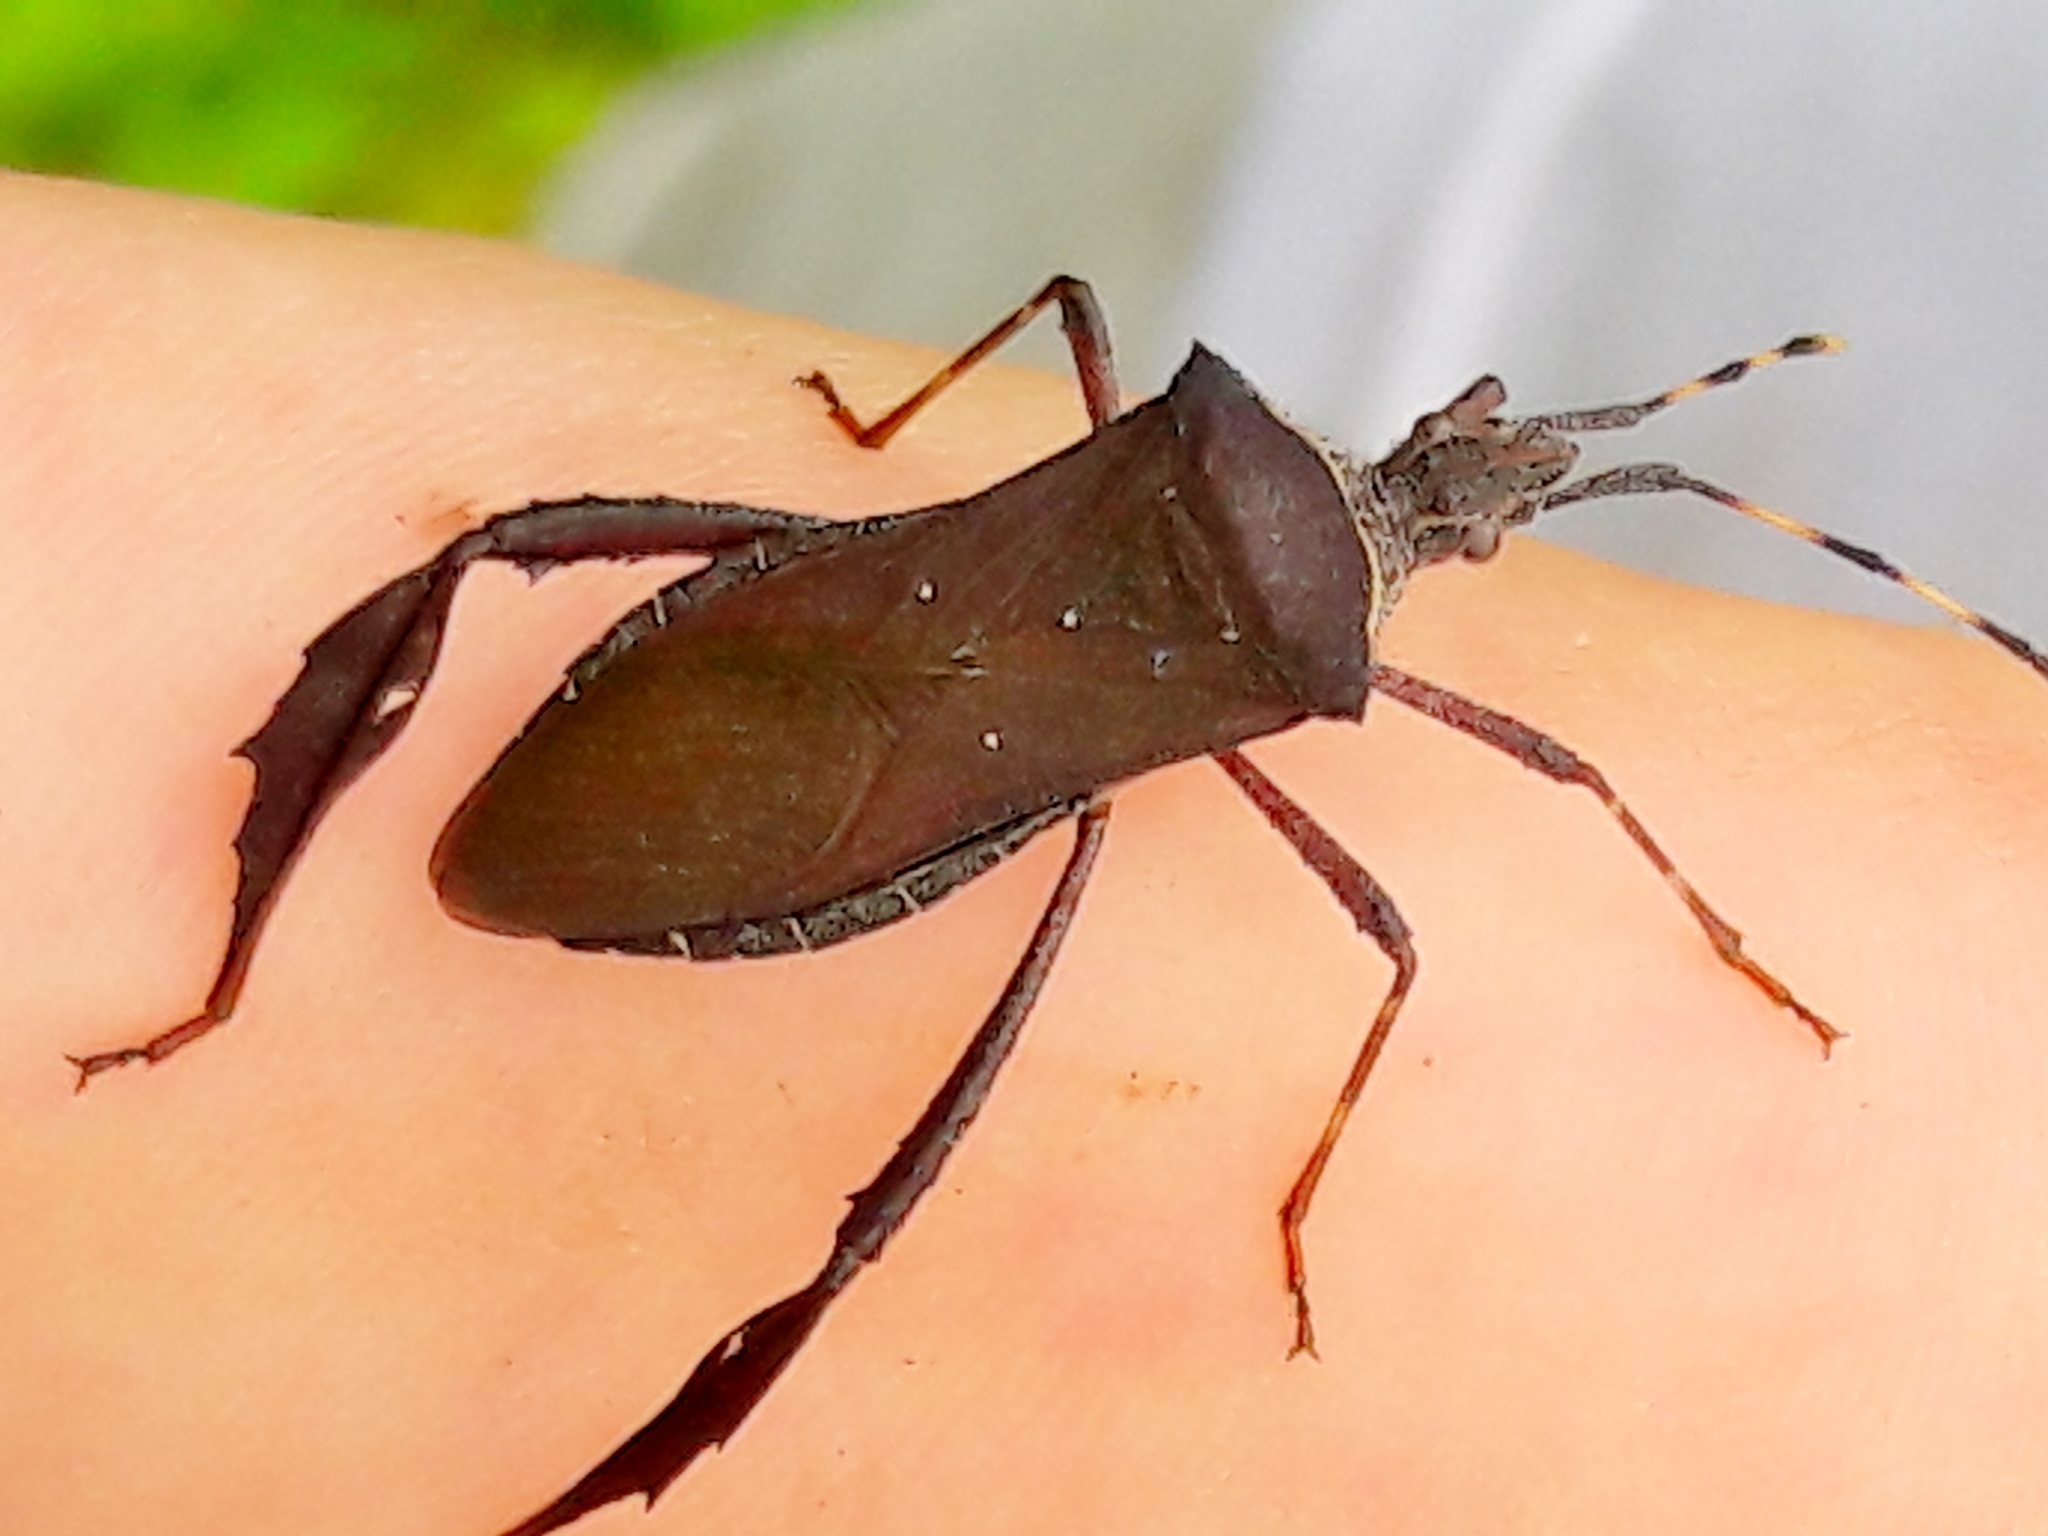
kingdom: Animalia
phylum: Arthropoda
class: Insecta
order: Hemiptera
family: Coreidae
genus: Leptoglossus
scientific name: Leptoglossus gonagra
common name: Citron bug
